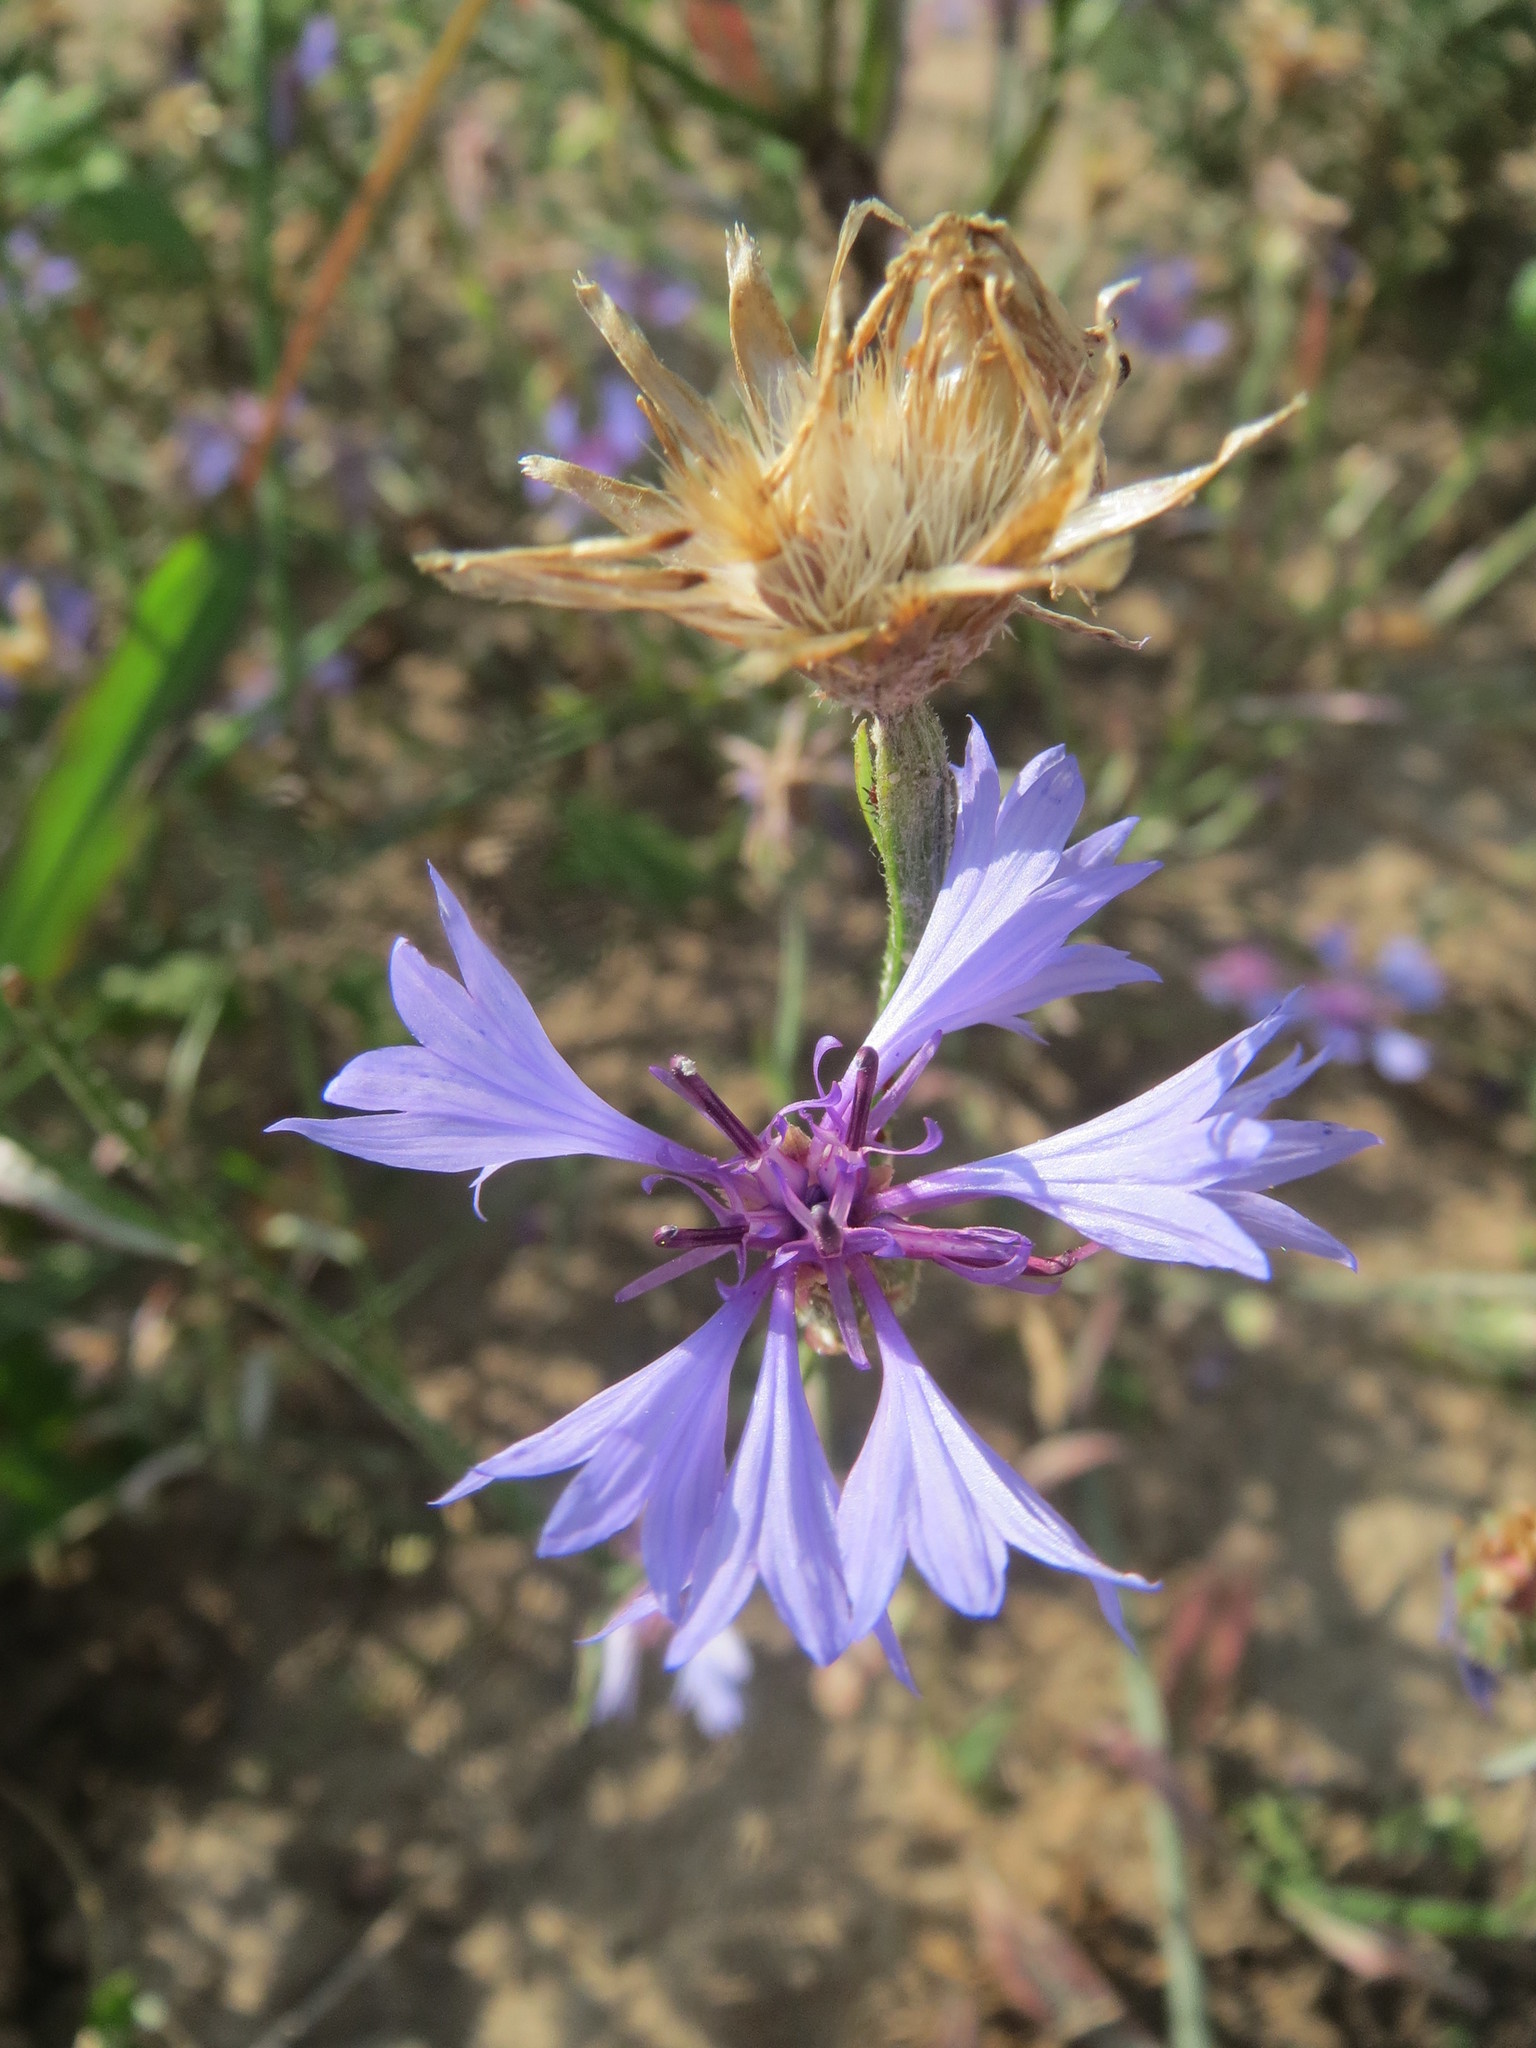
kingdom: Plantae
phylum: Tracheophyta
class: Magnoliopsida
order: Asterales
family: Asteraceae
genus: Centaurea
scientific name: Centaurea cyanus
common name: Cornflower
